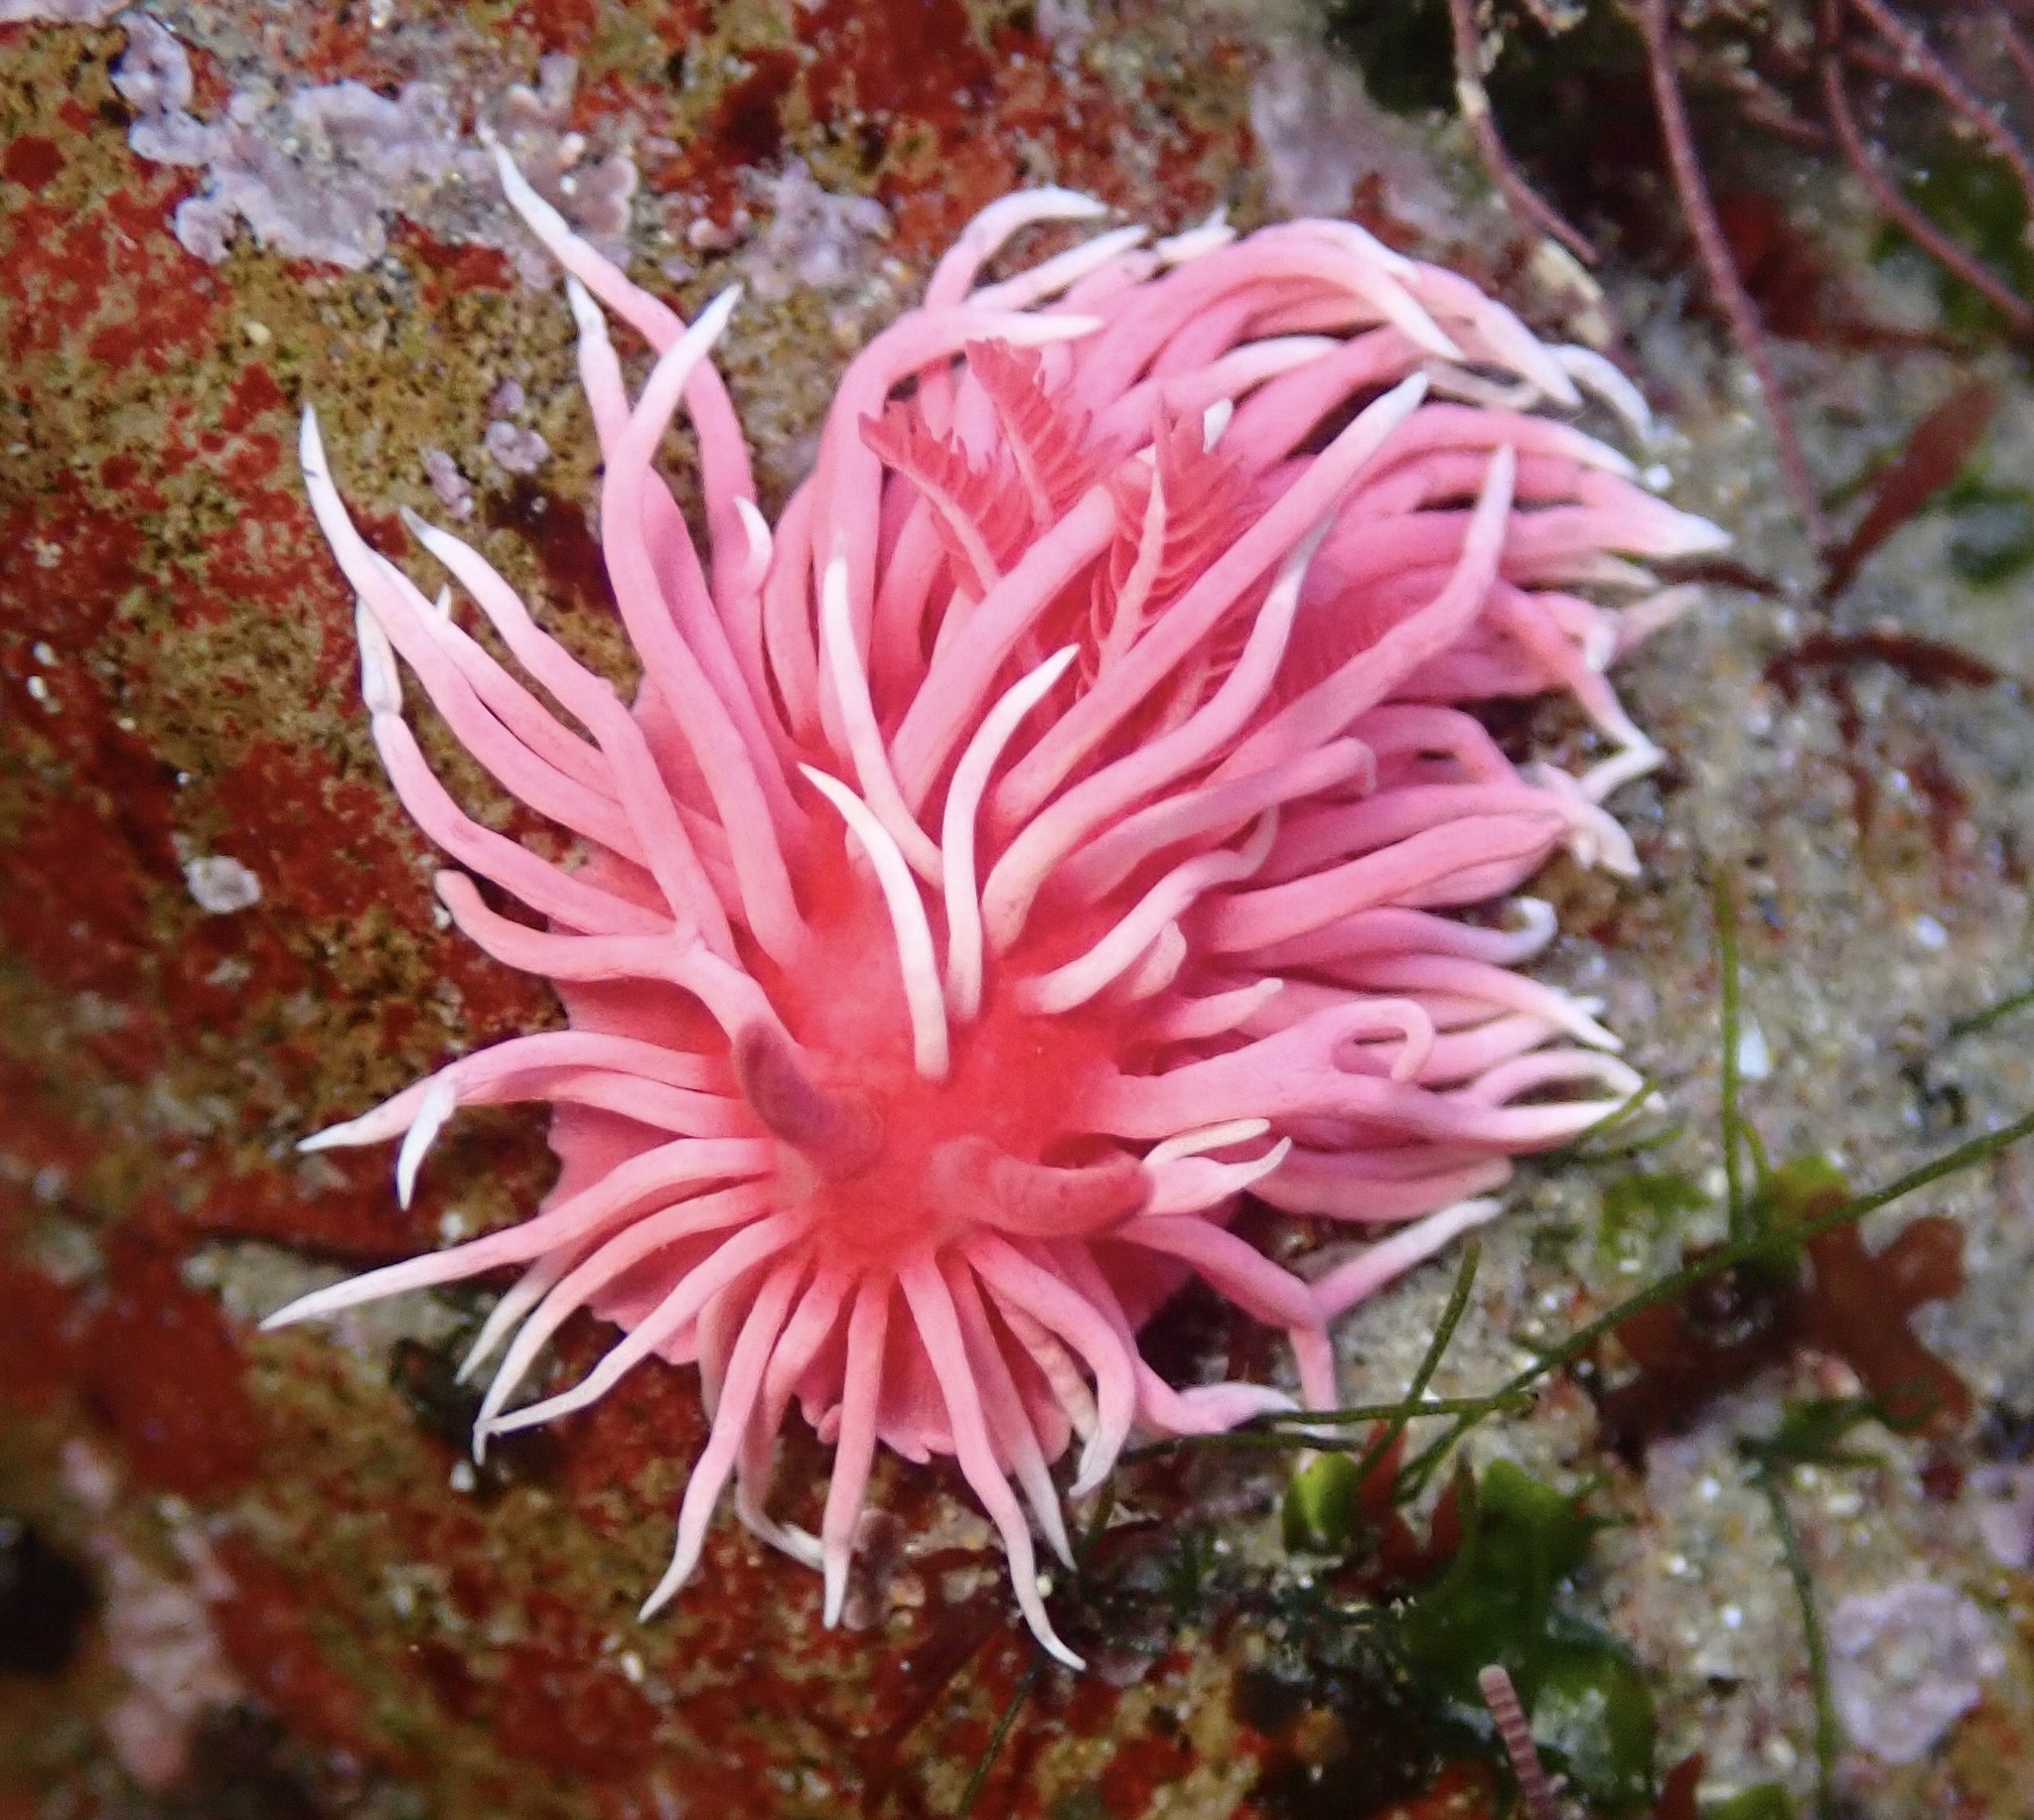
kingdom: Animalia
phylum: Mollusca
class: Gastropoda
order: Nudibranchia
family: Goniodorididae
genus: Okenia
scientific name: Okenia
